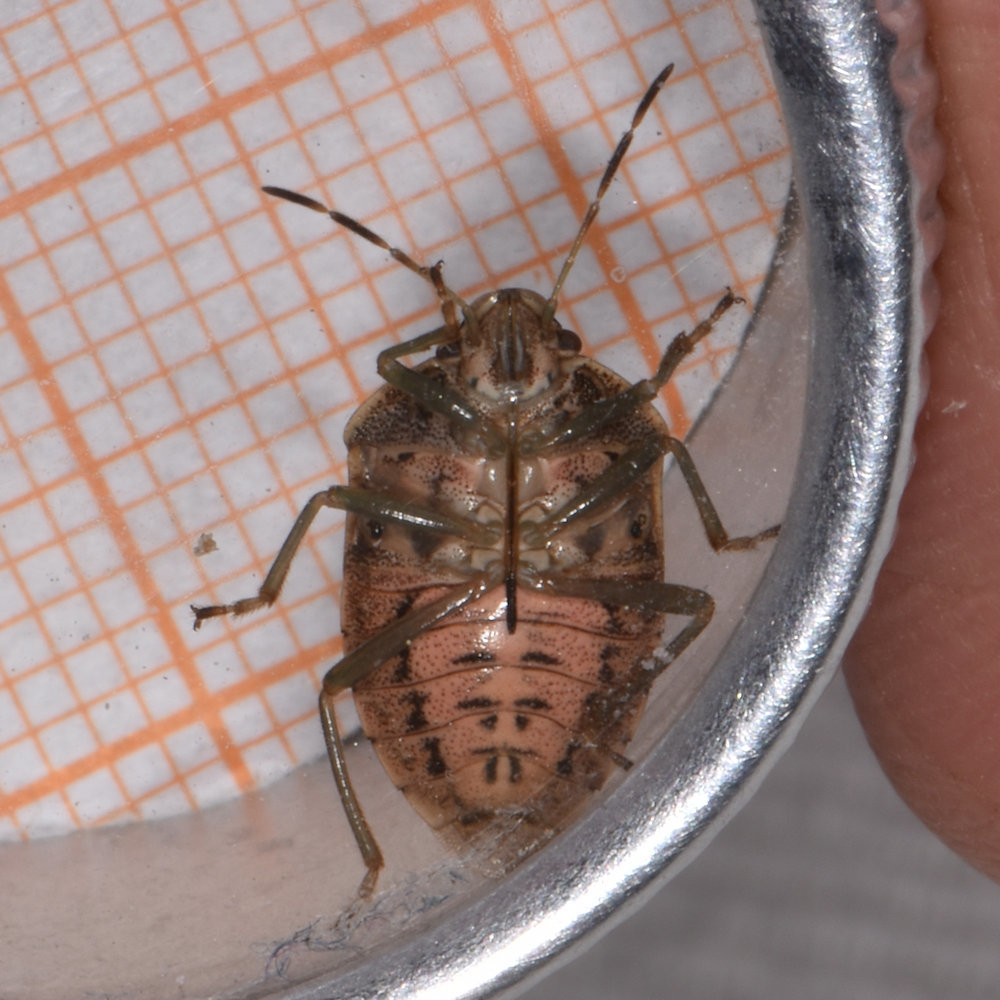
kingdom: Animalia
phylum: Arthropoda
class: Insecta
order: Hemiptera
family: Pentatomidae
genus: Banasa
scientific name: Banasa sordida
